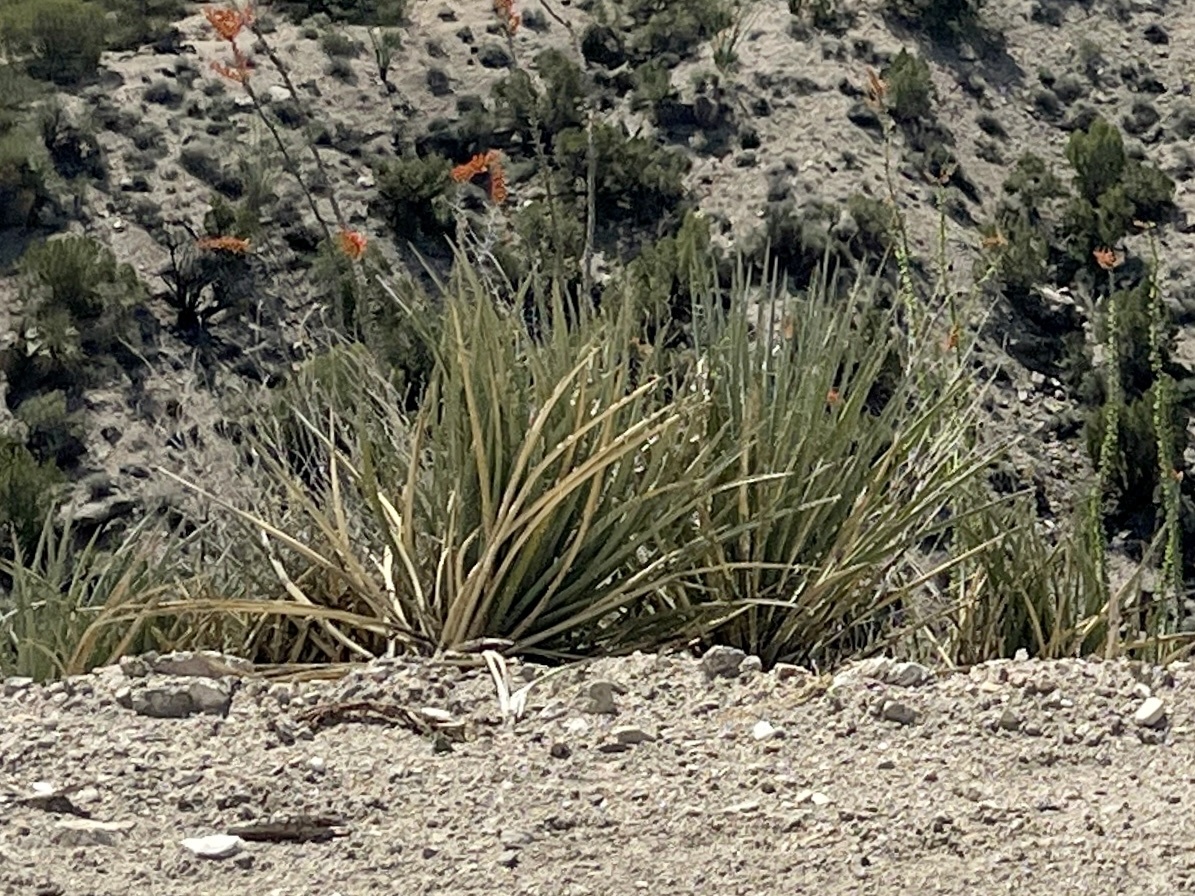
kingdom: Plantae
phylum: Tracheophyta
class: Liliopsida
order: Asparagales
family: Asparagaceae
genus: Yucca
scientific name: Yucca baccata
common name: Banana yucca
